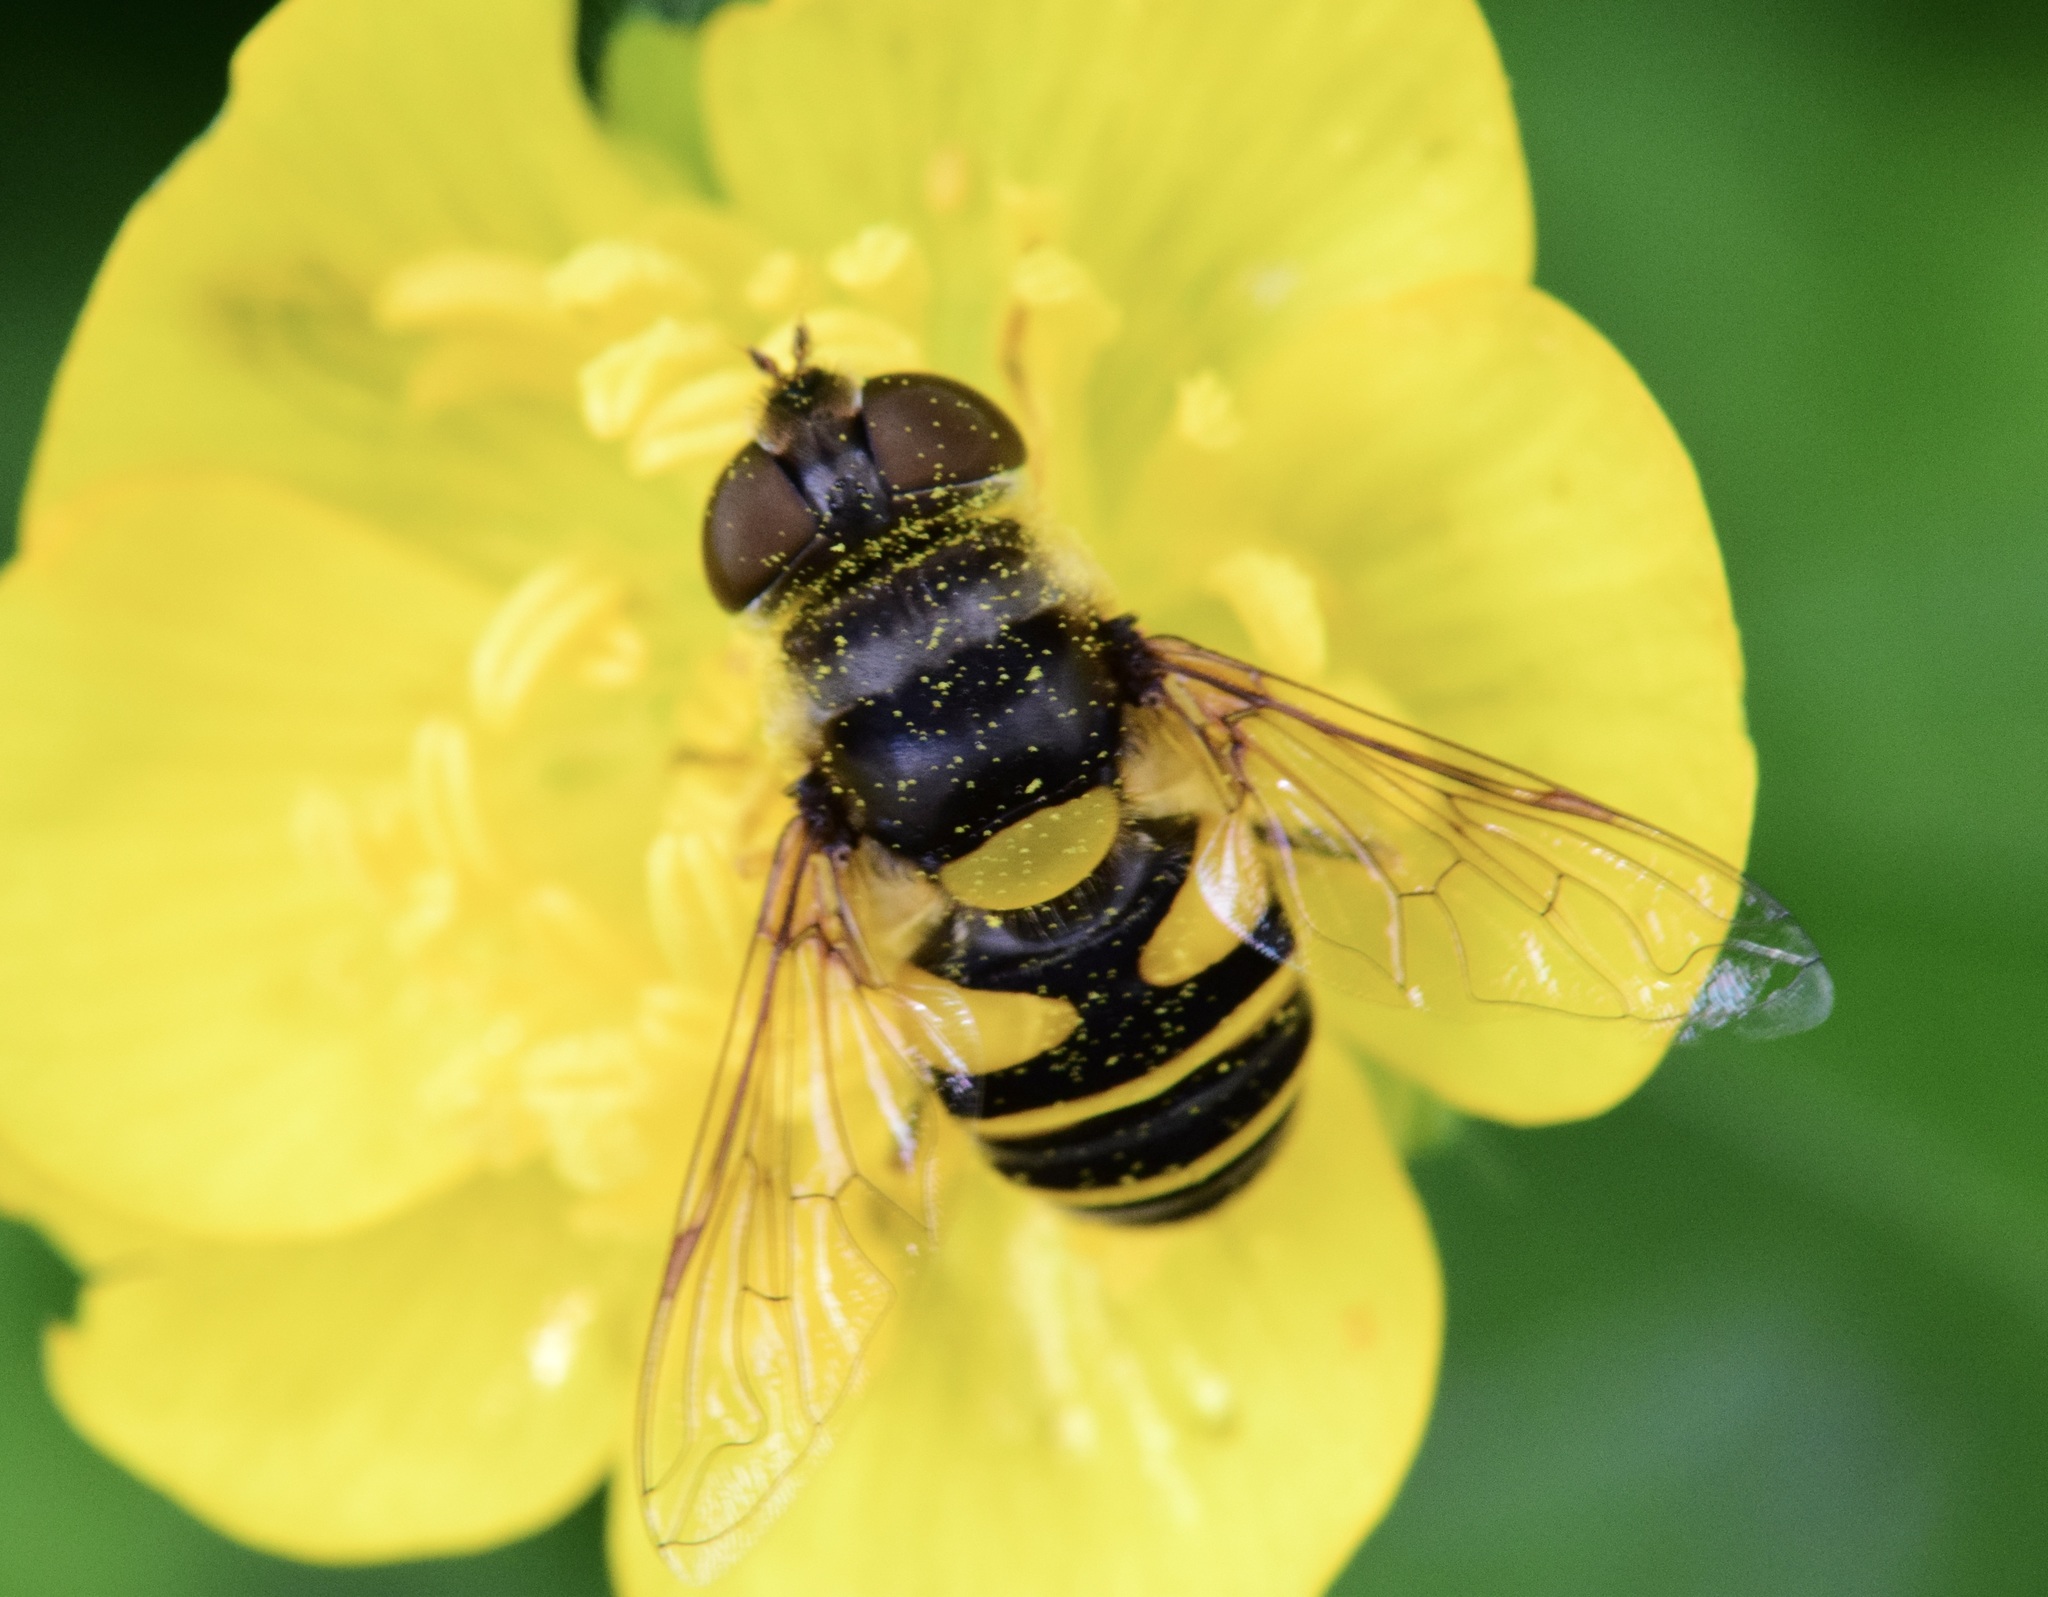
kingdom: Animalia
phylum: Arthropoda
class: Insecta
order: Diptera
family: Syrphidae
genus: Eristalis
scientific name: Eristalis transversa
